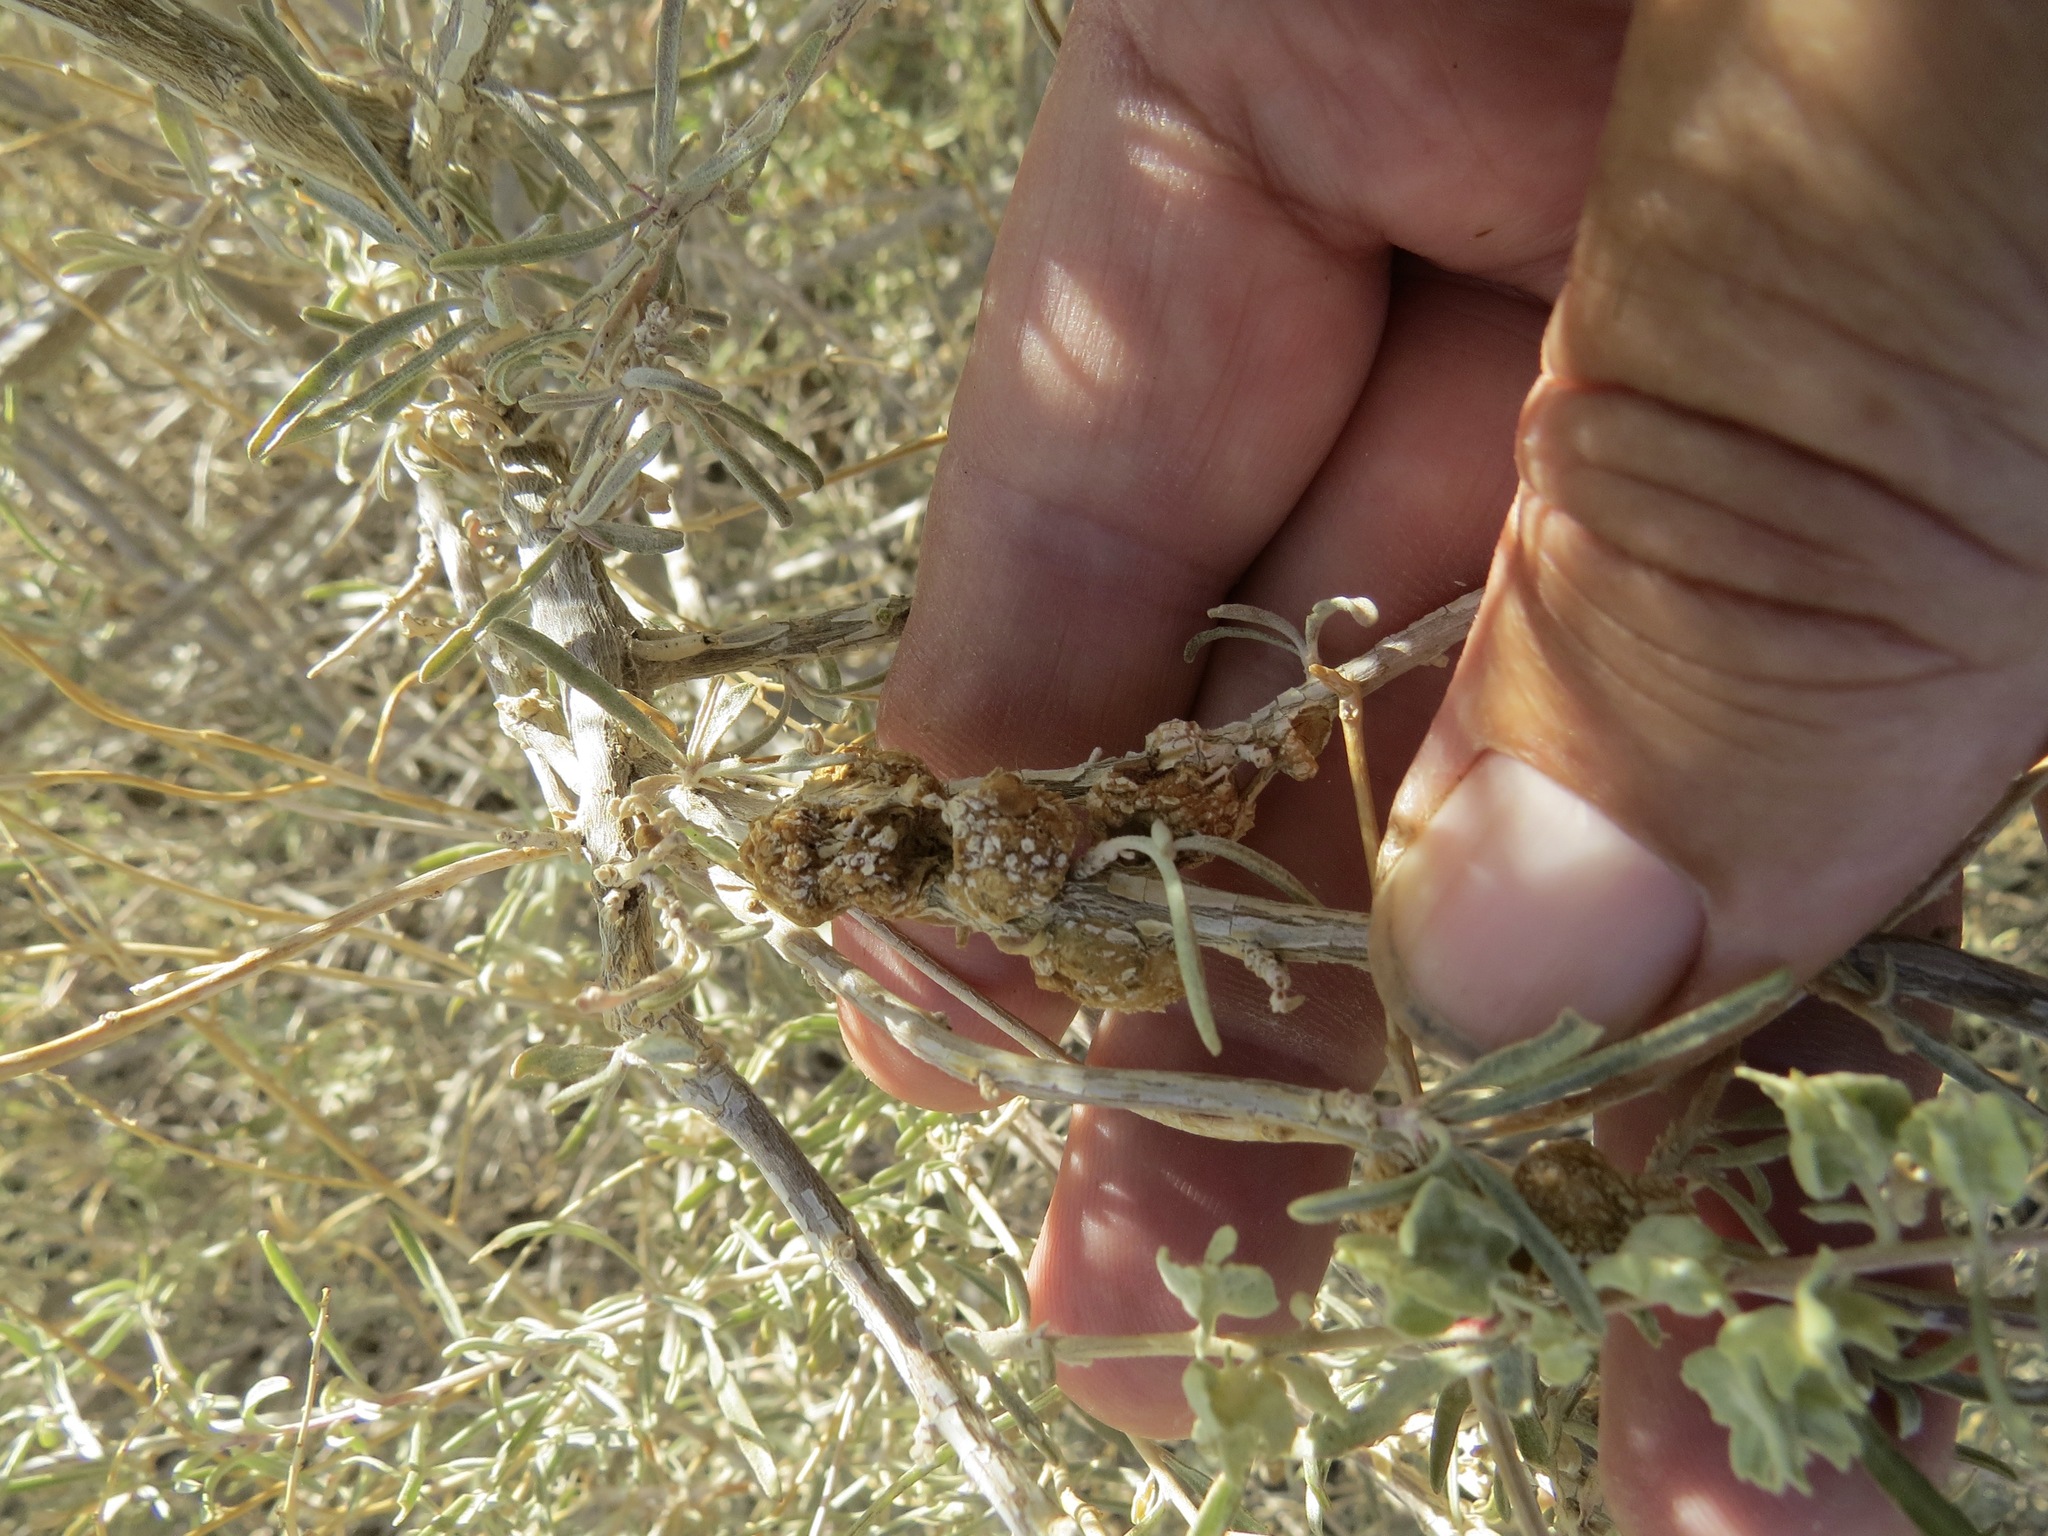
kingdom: Animalia
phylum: Arthropoda
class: Insecta
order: Diptera
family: Cecidomyiidae
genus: Asphondylia
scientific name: Asphondylia atriplicis
